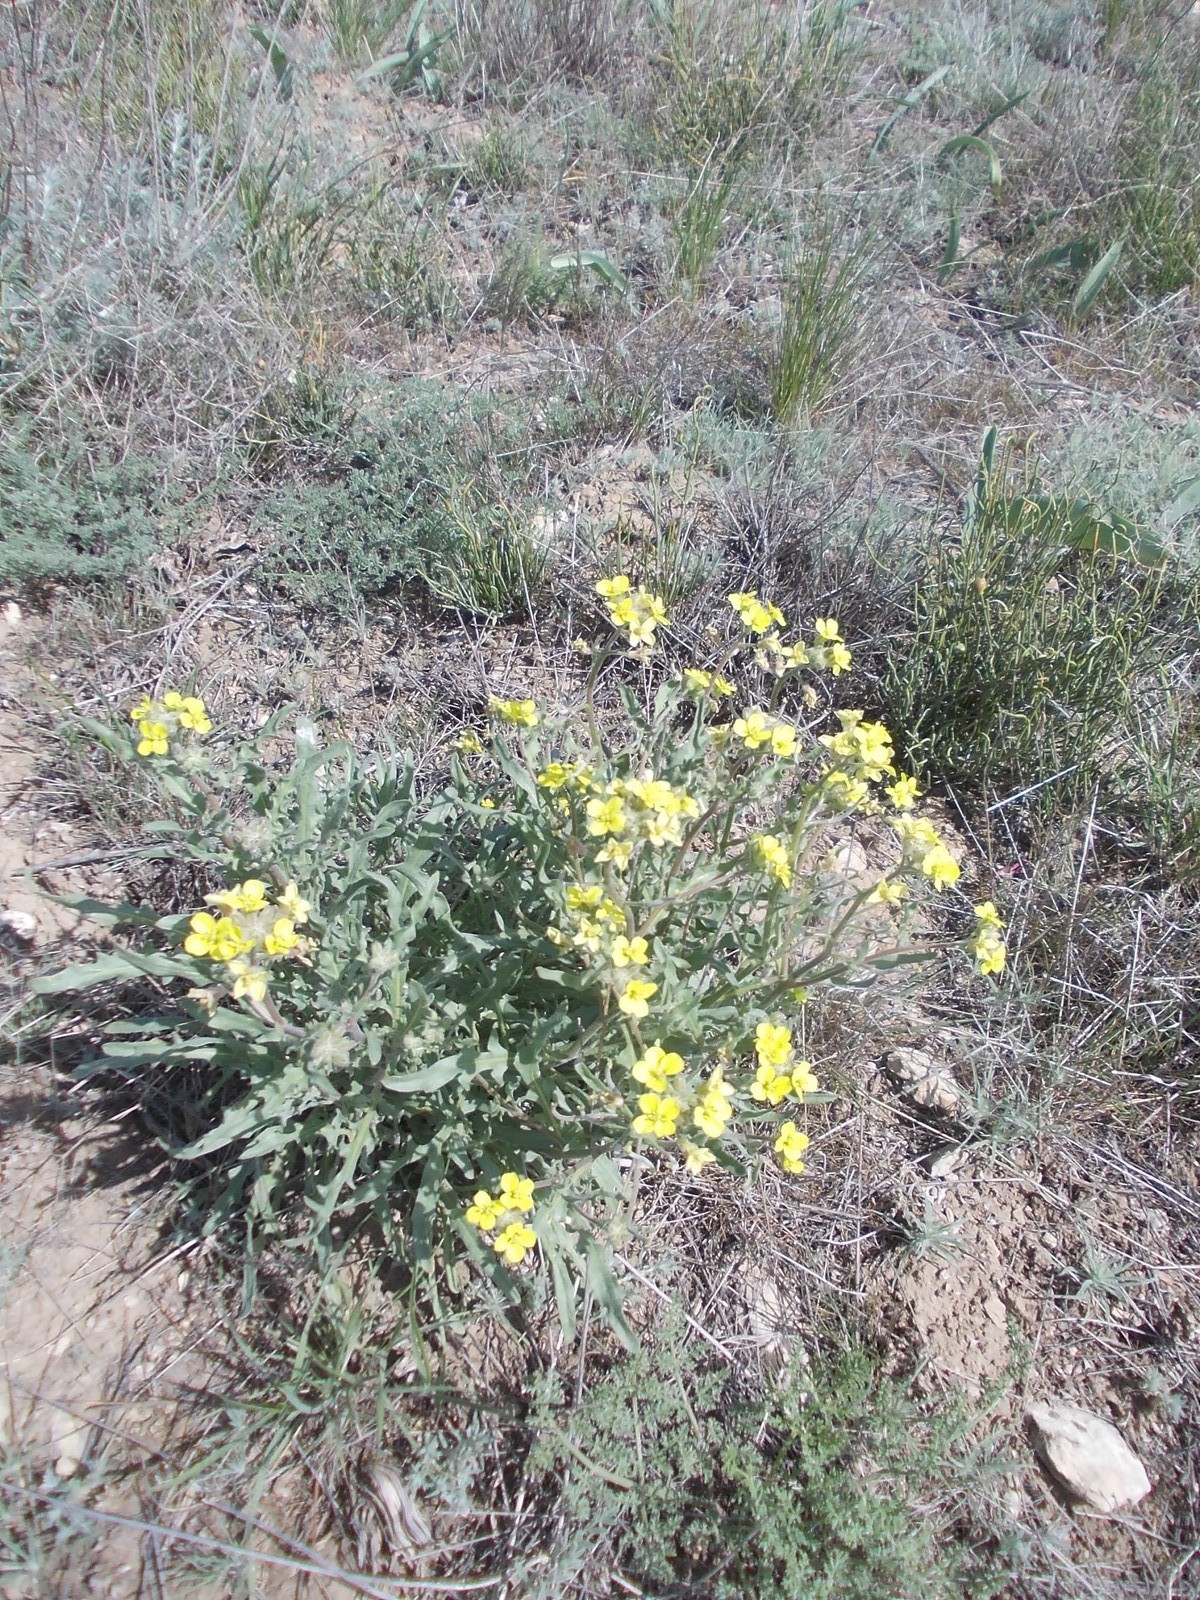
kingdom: Plantae
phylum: Tracheophyta
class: Magnoliopsida
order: Brassicales
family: Brassicaceae
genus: Sterigmostemum
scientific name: Sterigmostemum caspicum
